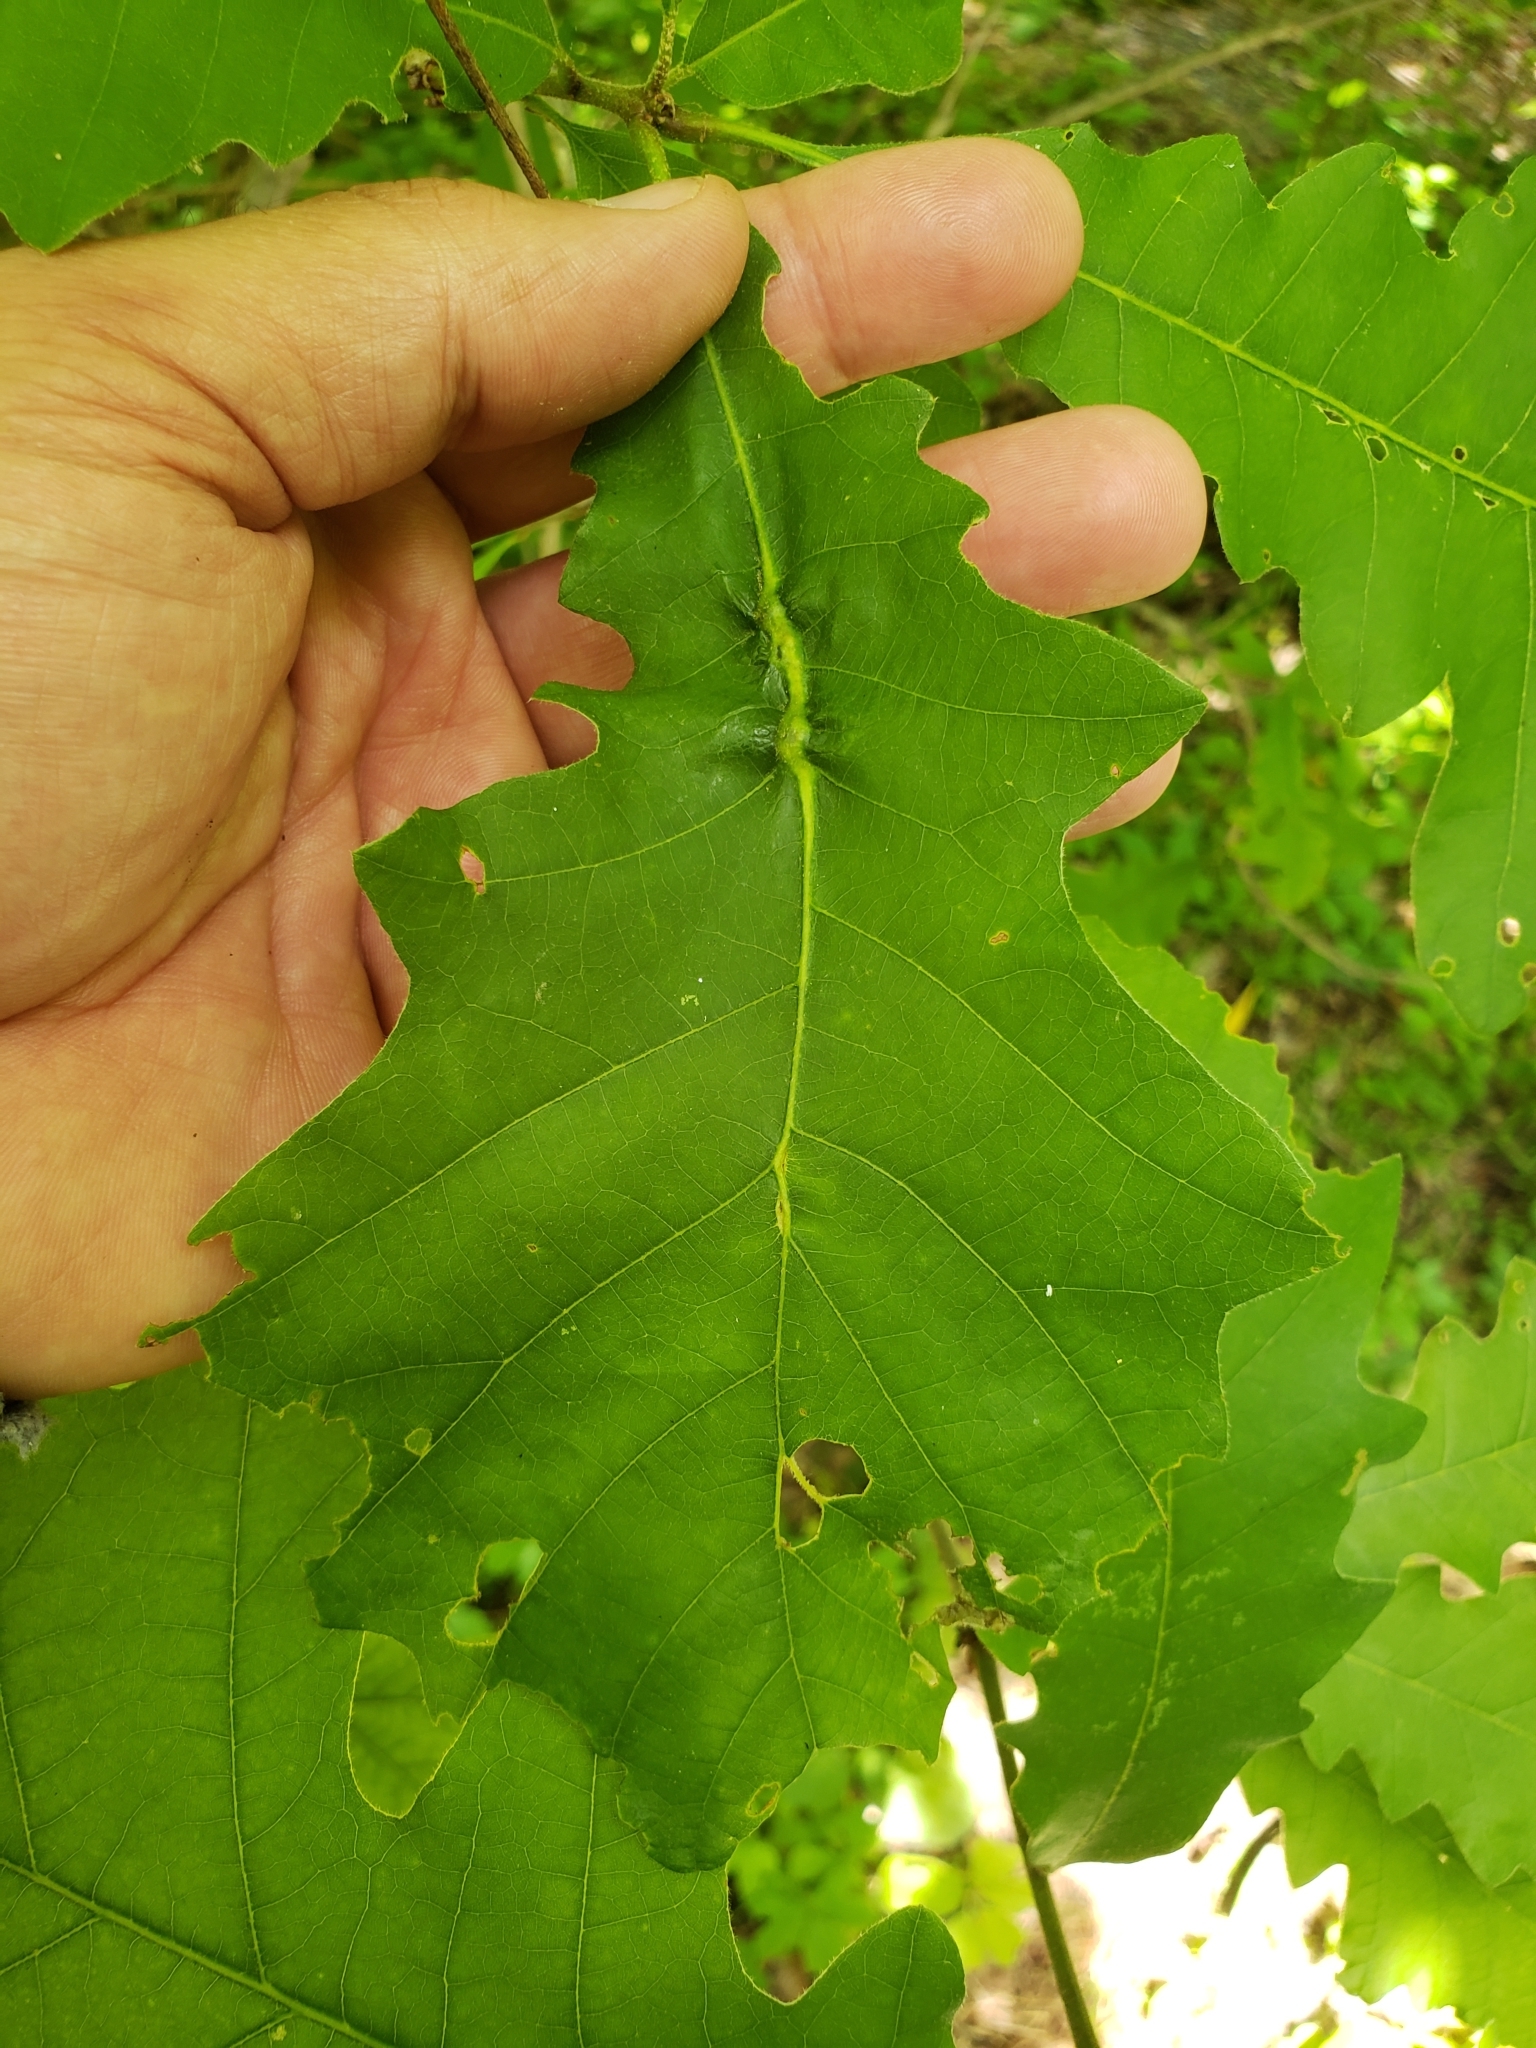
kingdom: Animalia
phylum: Arthropoda
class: Insecta
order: Hymenoptera
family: Cynipidae
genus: Bassettia
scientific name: Bassettia flavipes
